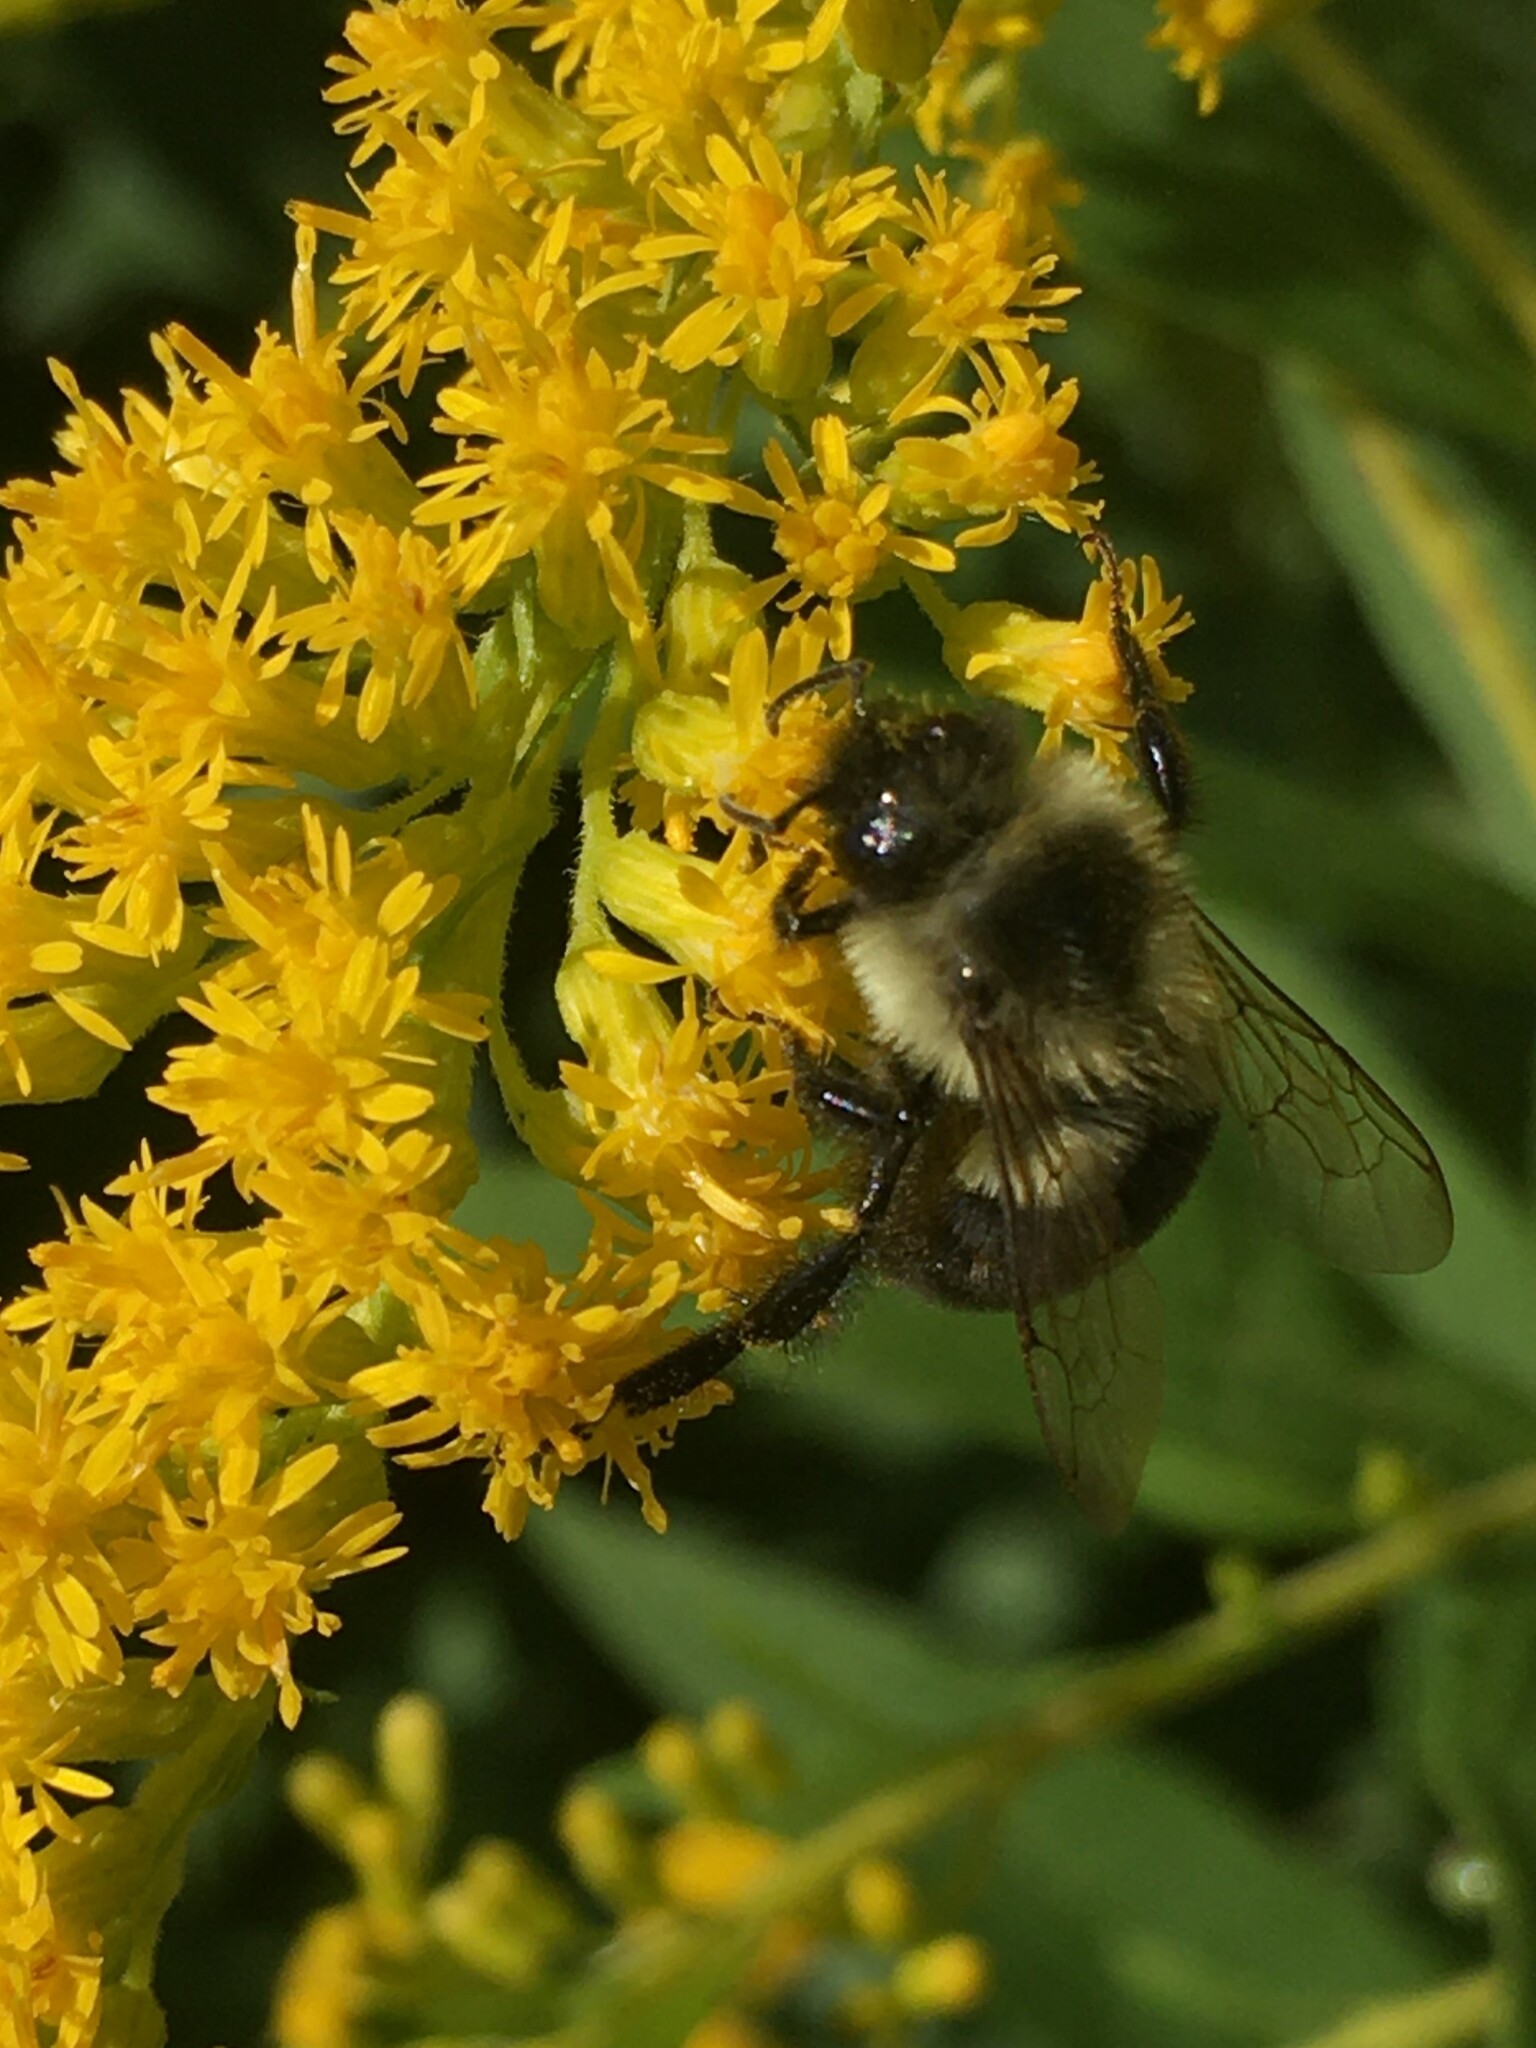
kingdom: Animalia
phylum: Arthropoda
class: Insecta
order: Hymenoptera
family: Apidae
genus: Bombus
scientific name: Bombus impatiens
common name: Common eastern bumble bee
